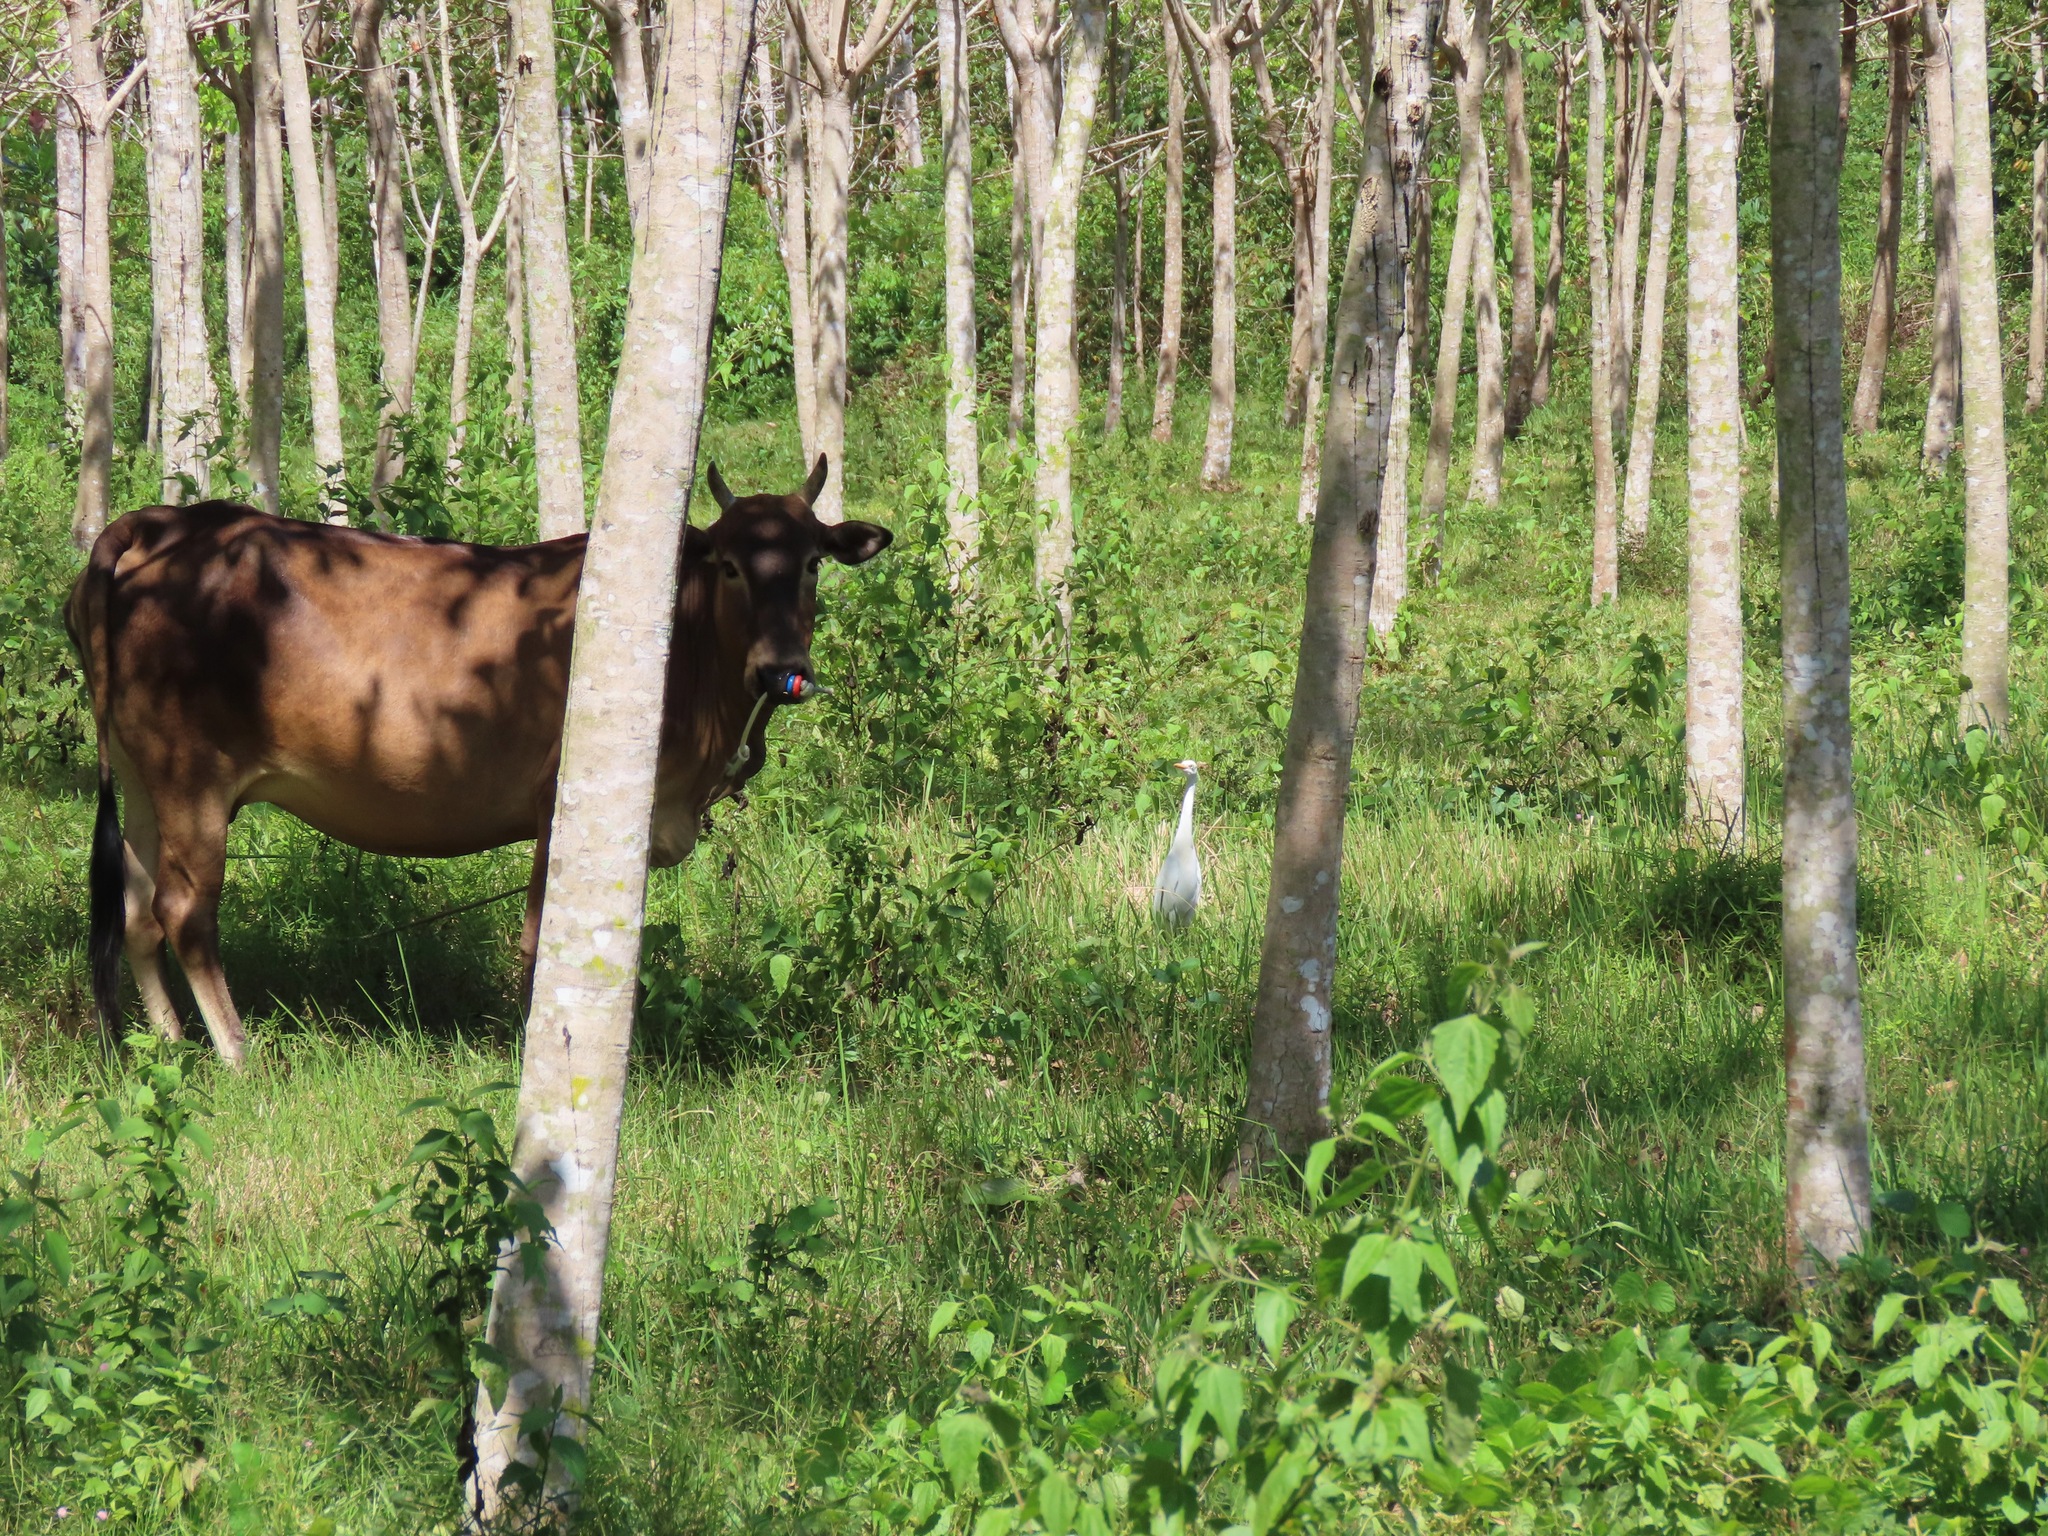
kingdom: Animalia
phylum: Chordata
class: Aves
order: Pelecaniformes
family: Ardeidae
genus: Bubulcus
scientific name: Bubulcus coromandus
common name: Eastern cattle egret
